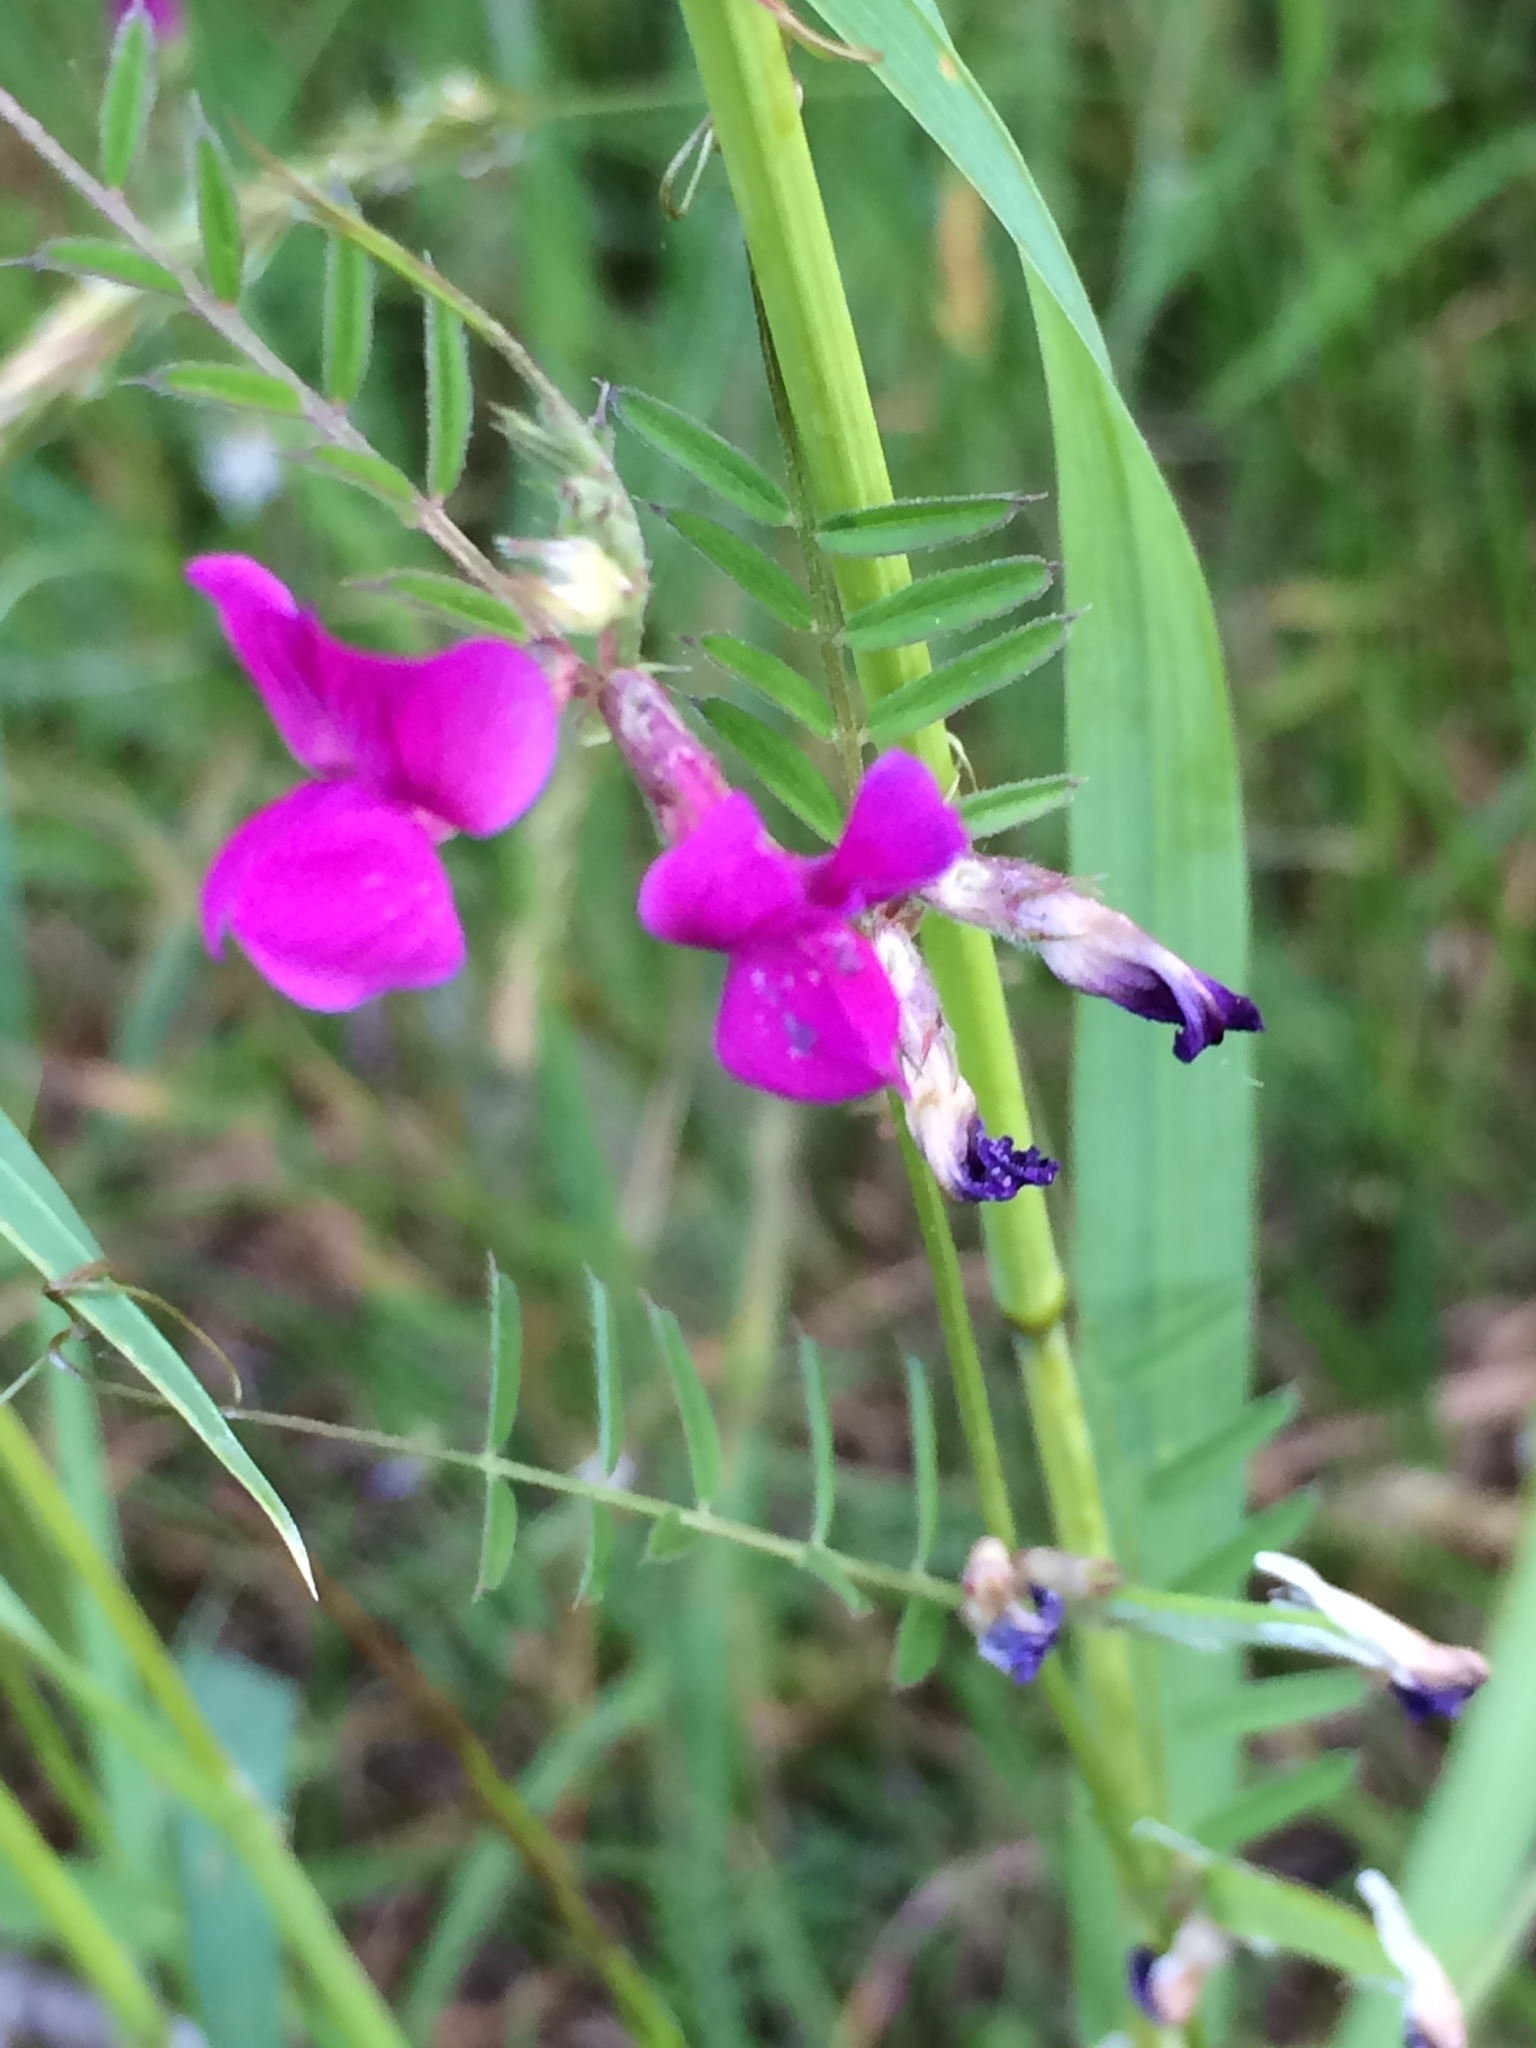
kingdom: Plantae
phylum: Tracheophyta
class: Magnoliopsida
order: Fabales
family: Fabaceae
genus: Vicia
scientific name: Vicia sativa
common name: Garden vetch
